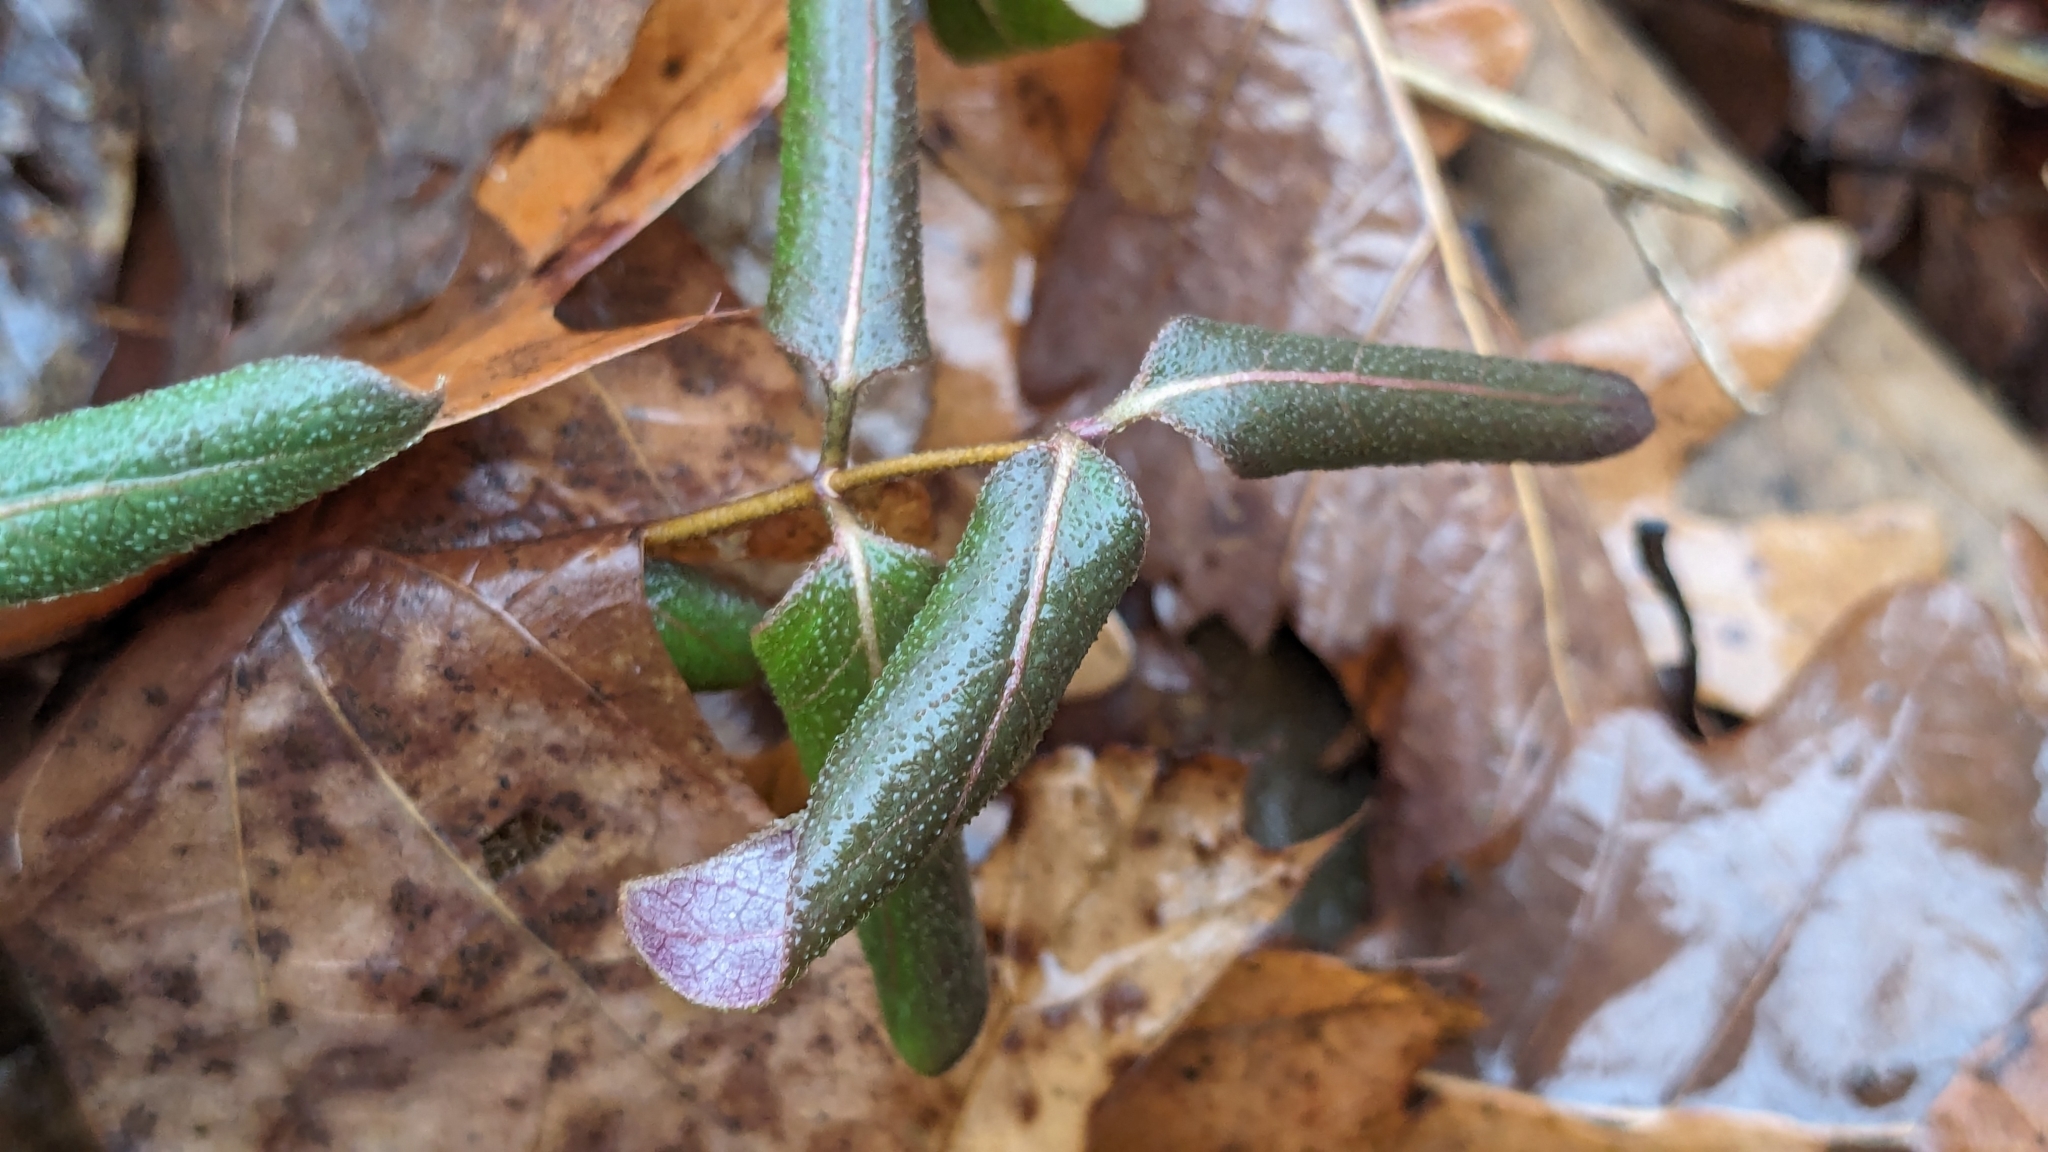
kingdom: Plantae
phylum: Tracheophyta
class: Magnoliopsida
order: Dipsacales
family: Caprifoliaceae
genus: Lonicera
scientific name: Lonicera japonica
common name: Japanese honeysuckle
